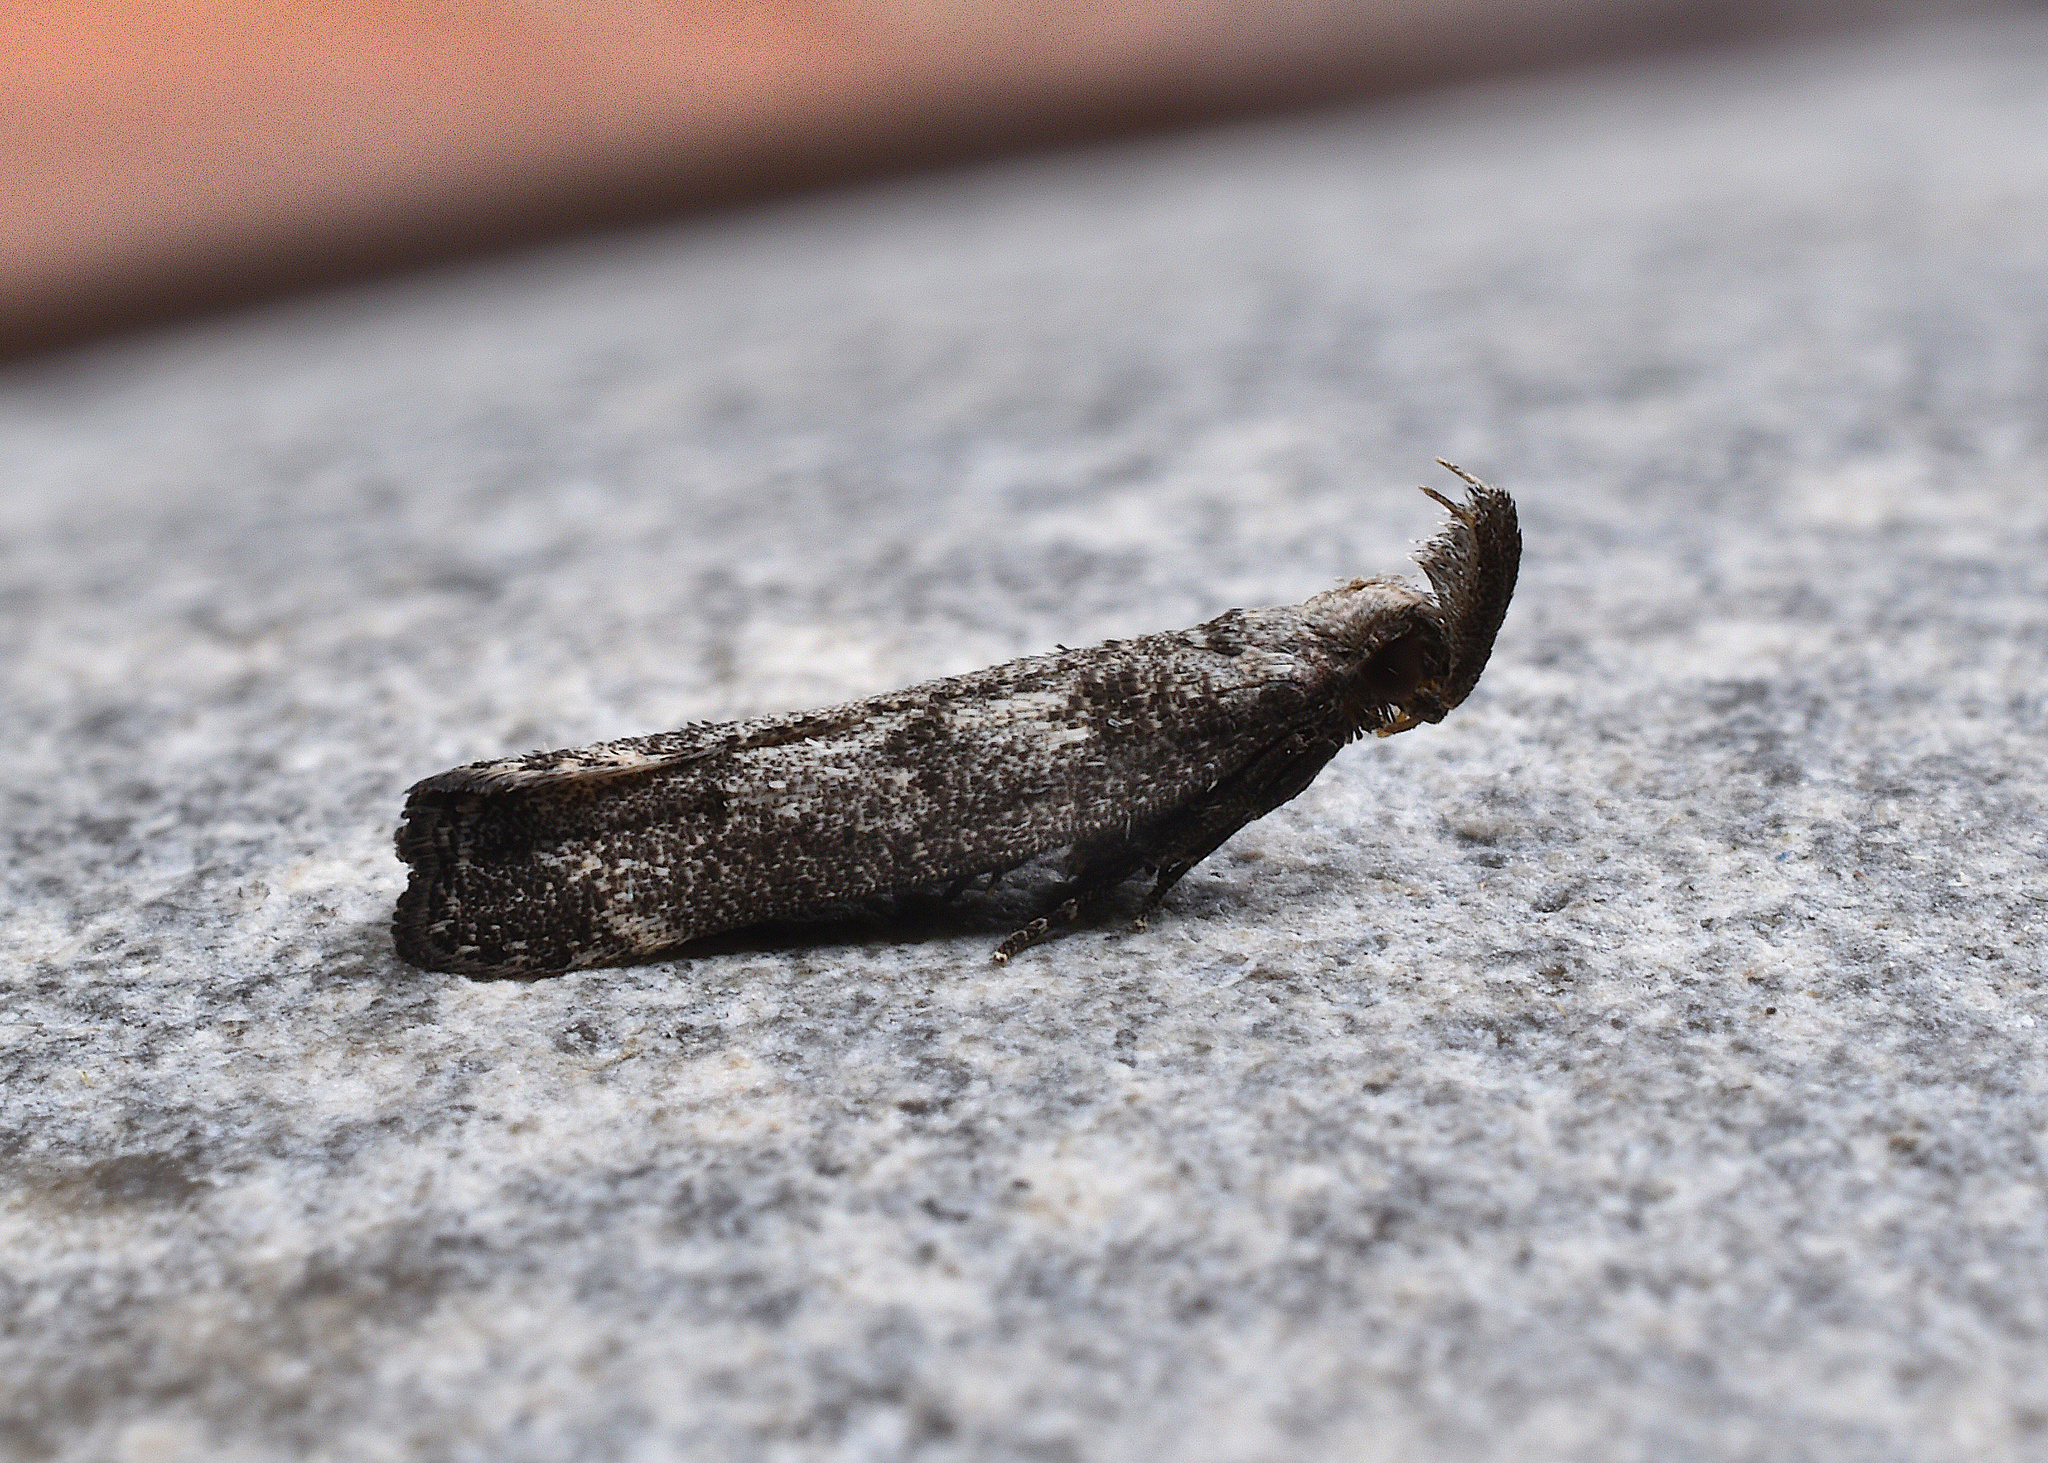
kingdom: Animalia
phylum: Arthropoda
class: Insecta
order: Lepidoptera
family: Gelechiidae
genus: Dichomeris
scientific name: Dichomeris inversella
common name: Inverse dichomeris moth
